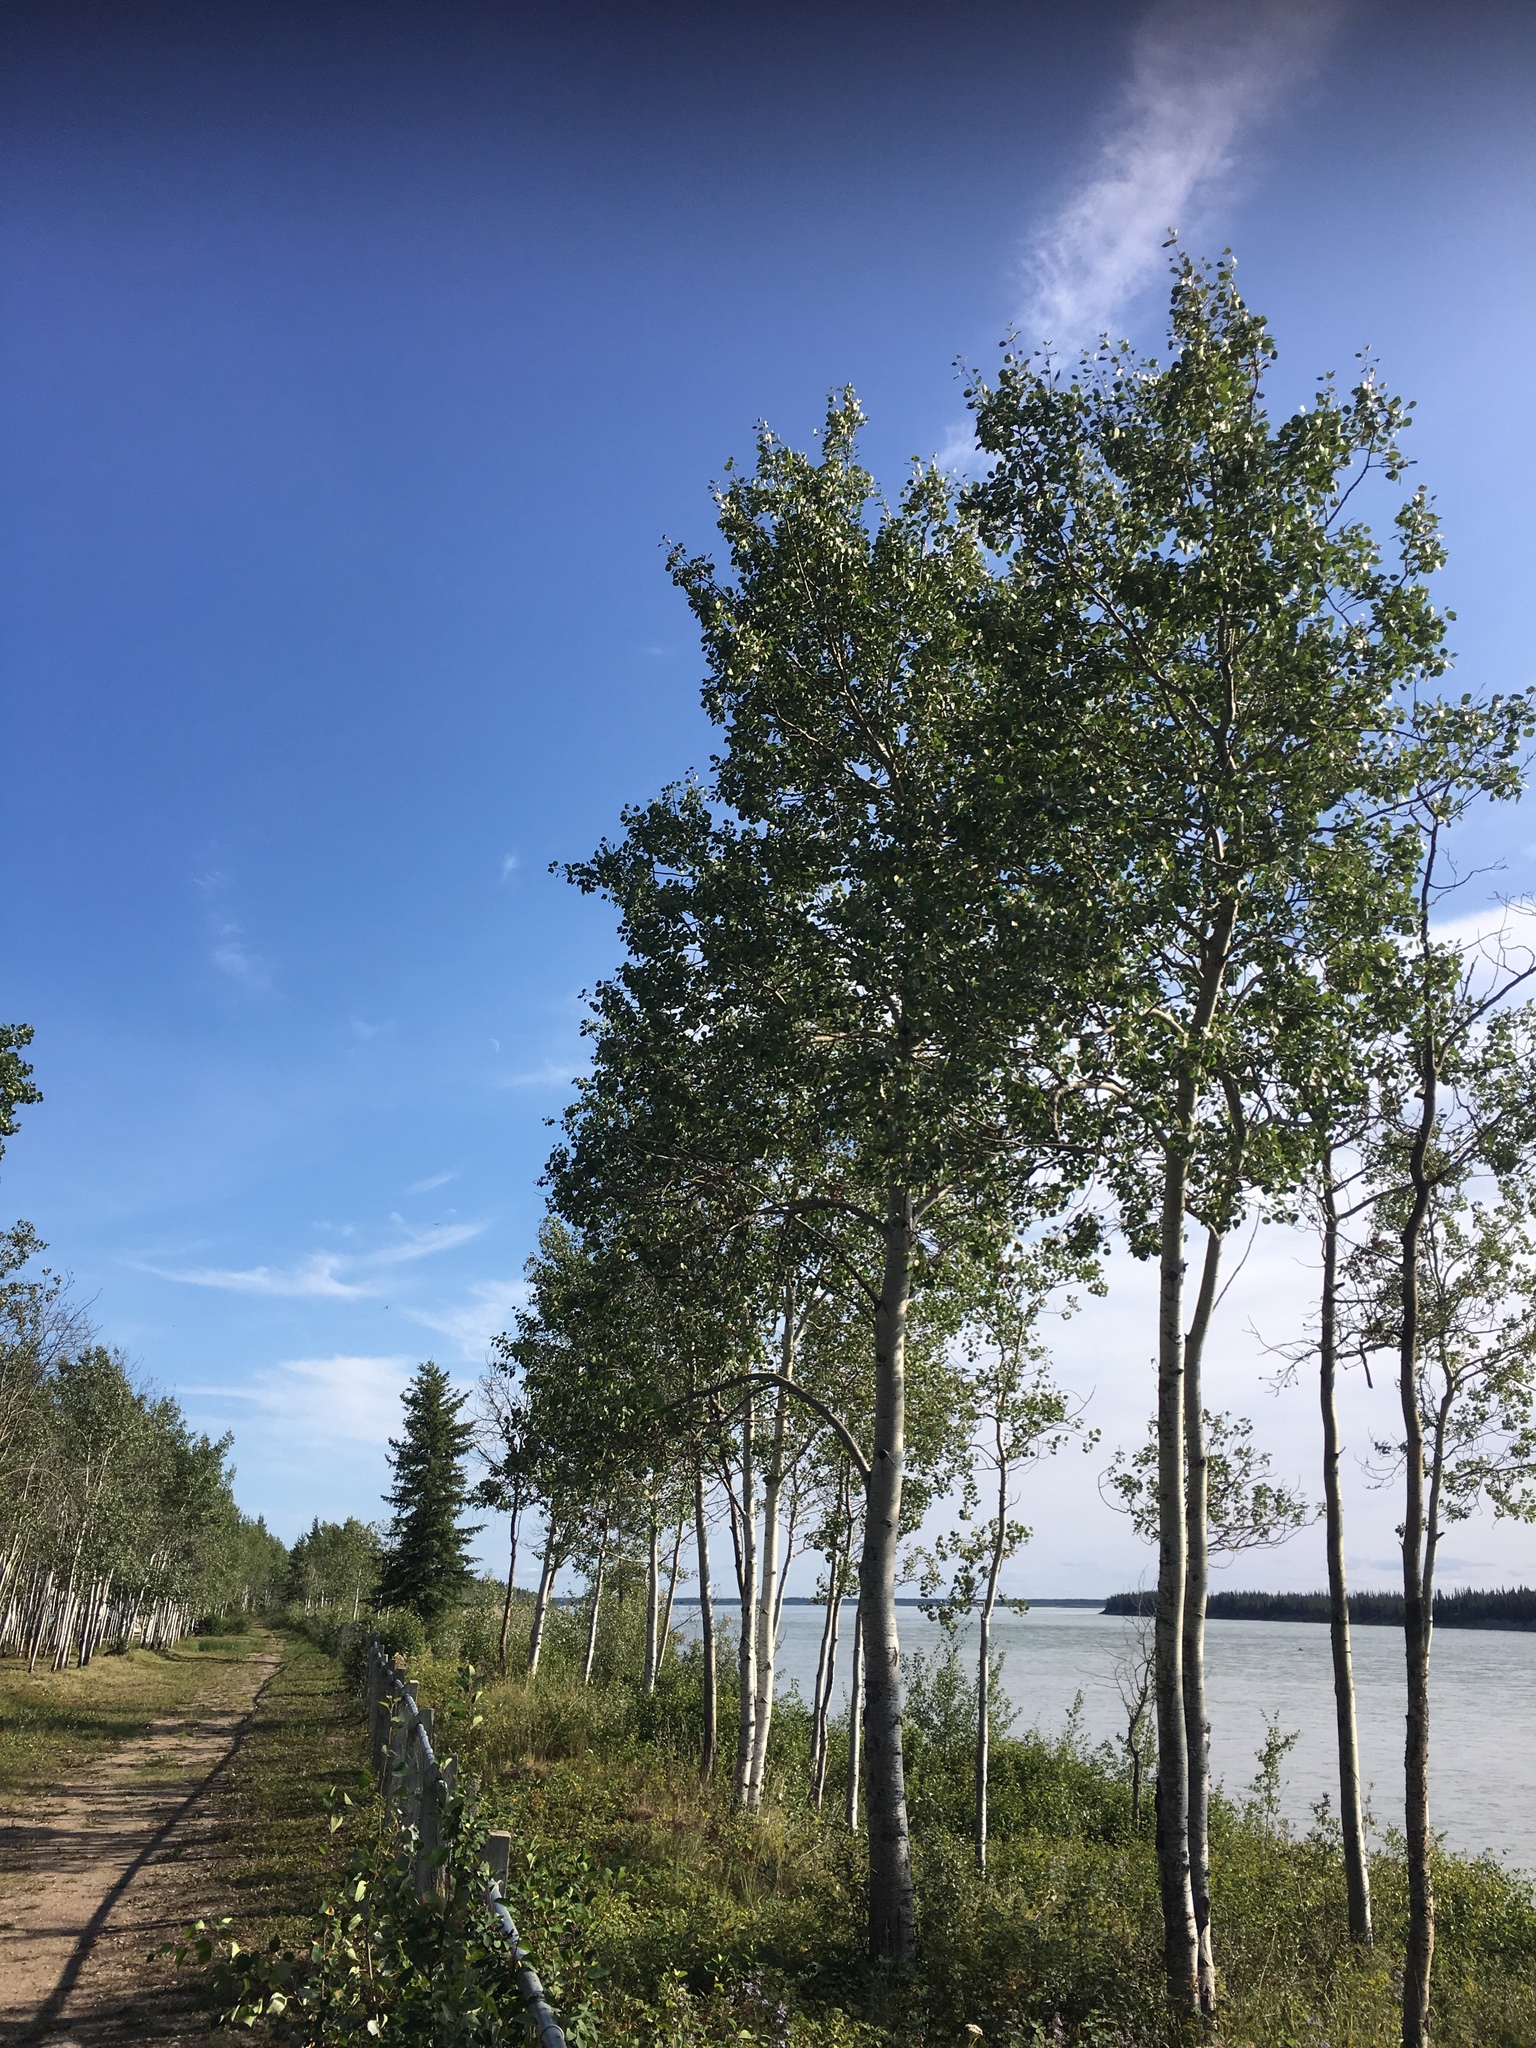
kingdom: Plantae
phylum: Tracheophyta
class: Magnoliopsida
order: Malpighiales
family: Salicaceae
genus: Populus
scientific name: Populus tremuloides
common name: Quaking aspen
